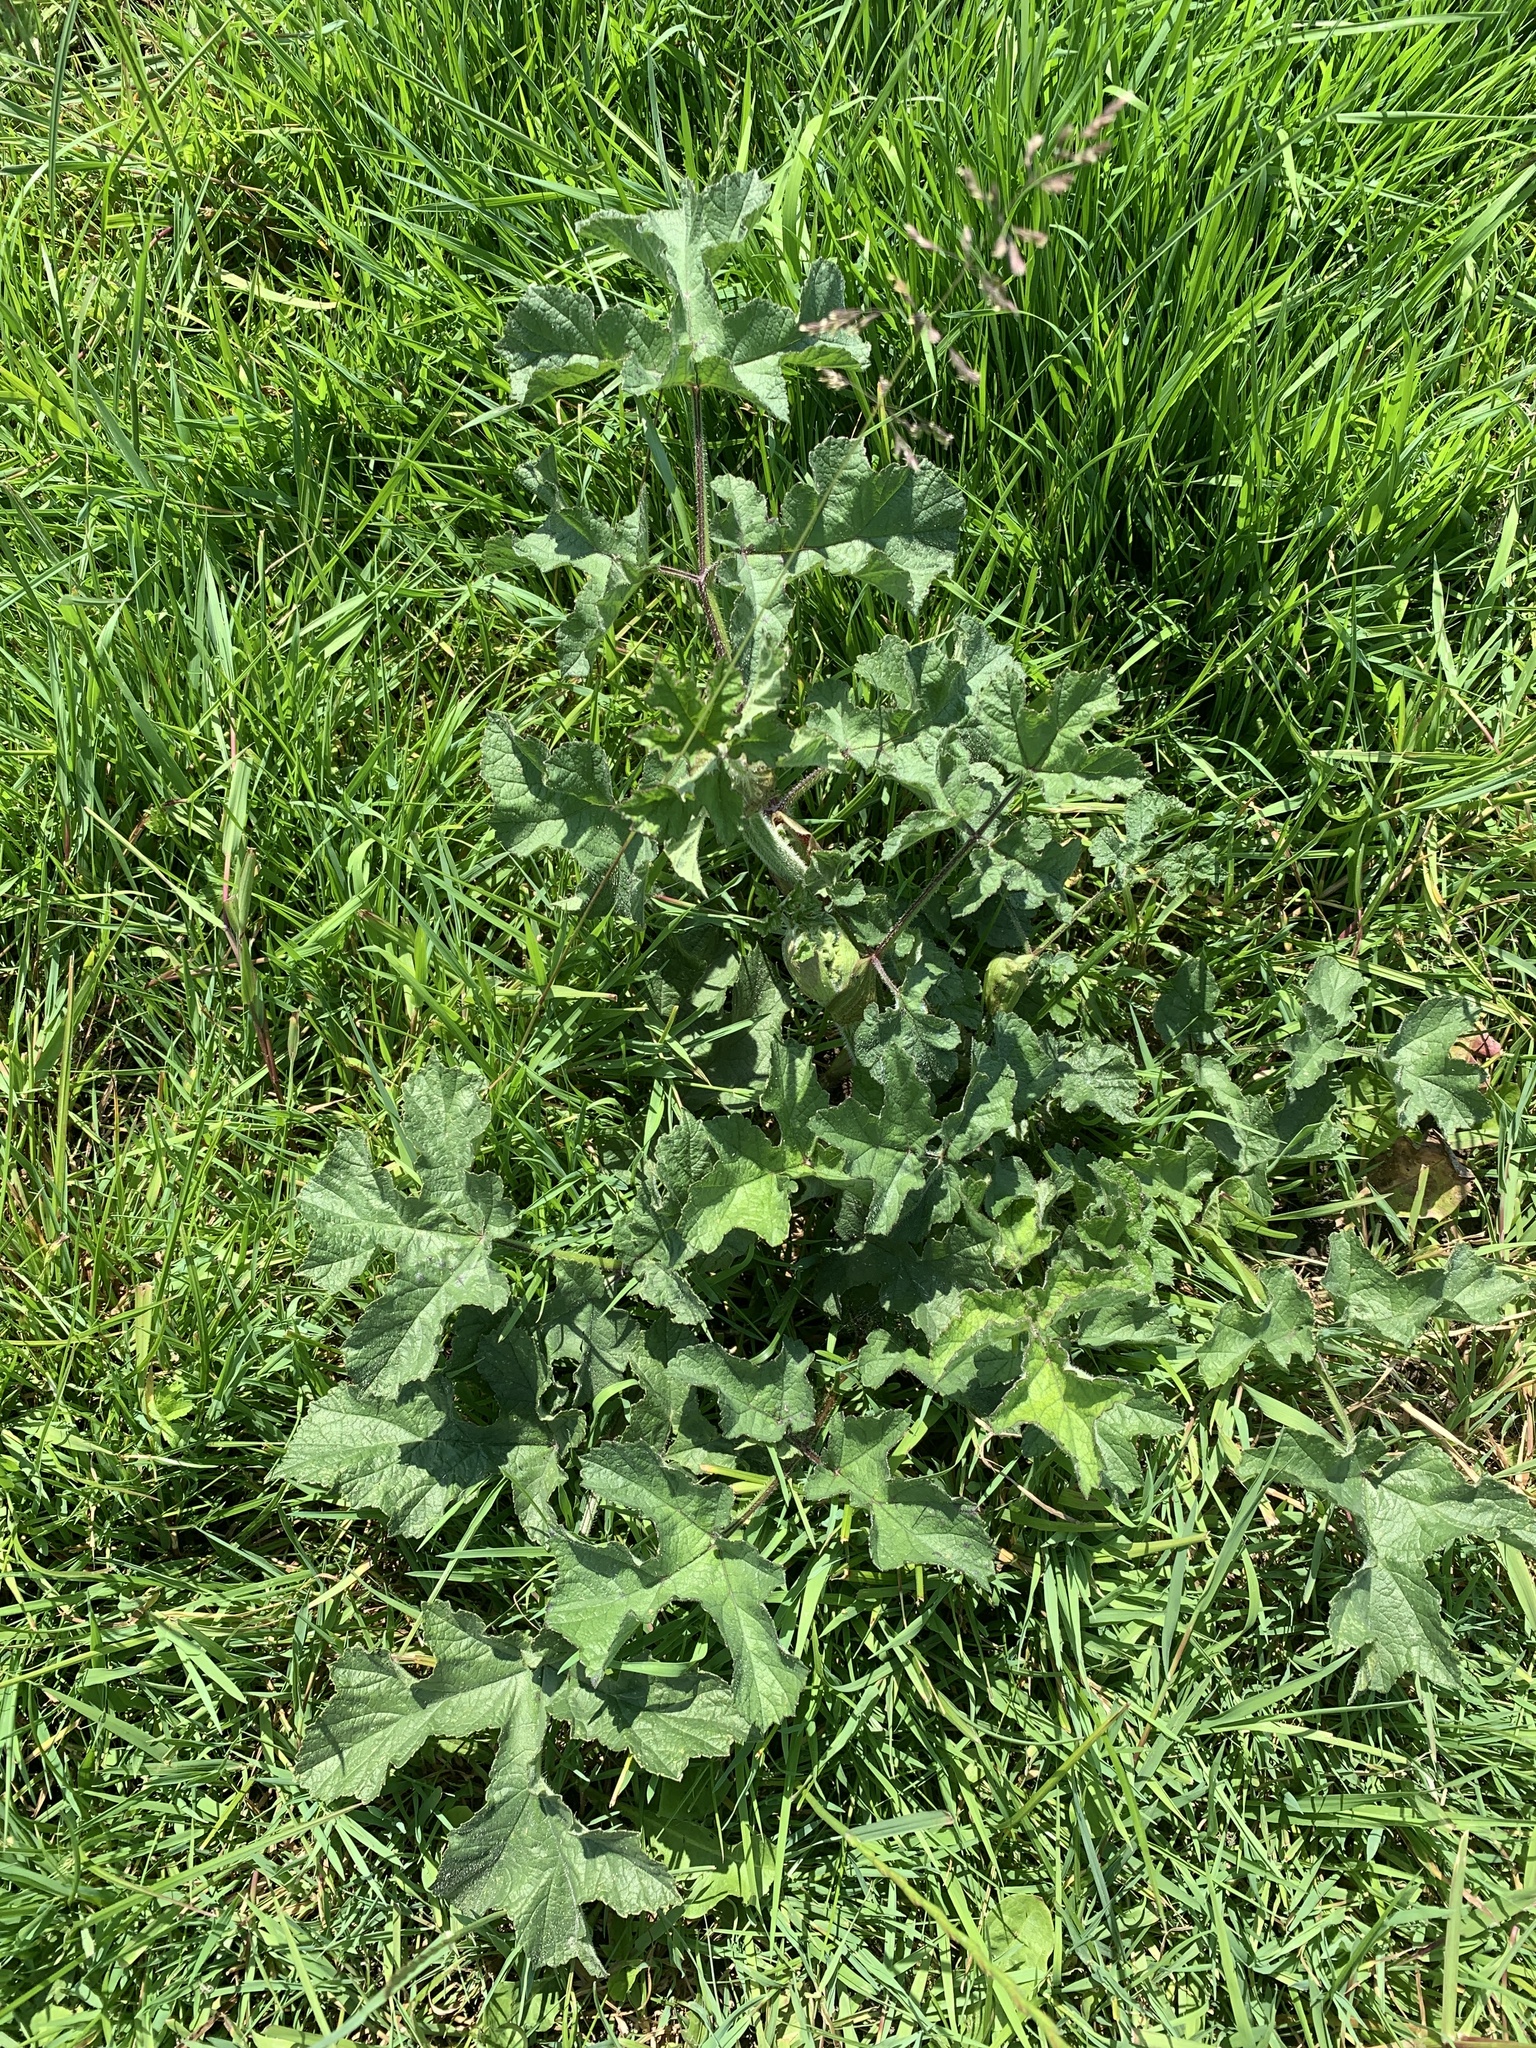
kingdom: Plantae
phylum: Tracheophyta
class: Magnoliopsida
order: Apiales
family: Apiaceae
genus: Heracleum
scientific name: Heracleum sphondylium
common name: Hogweed
